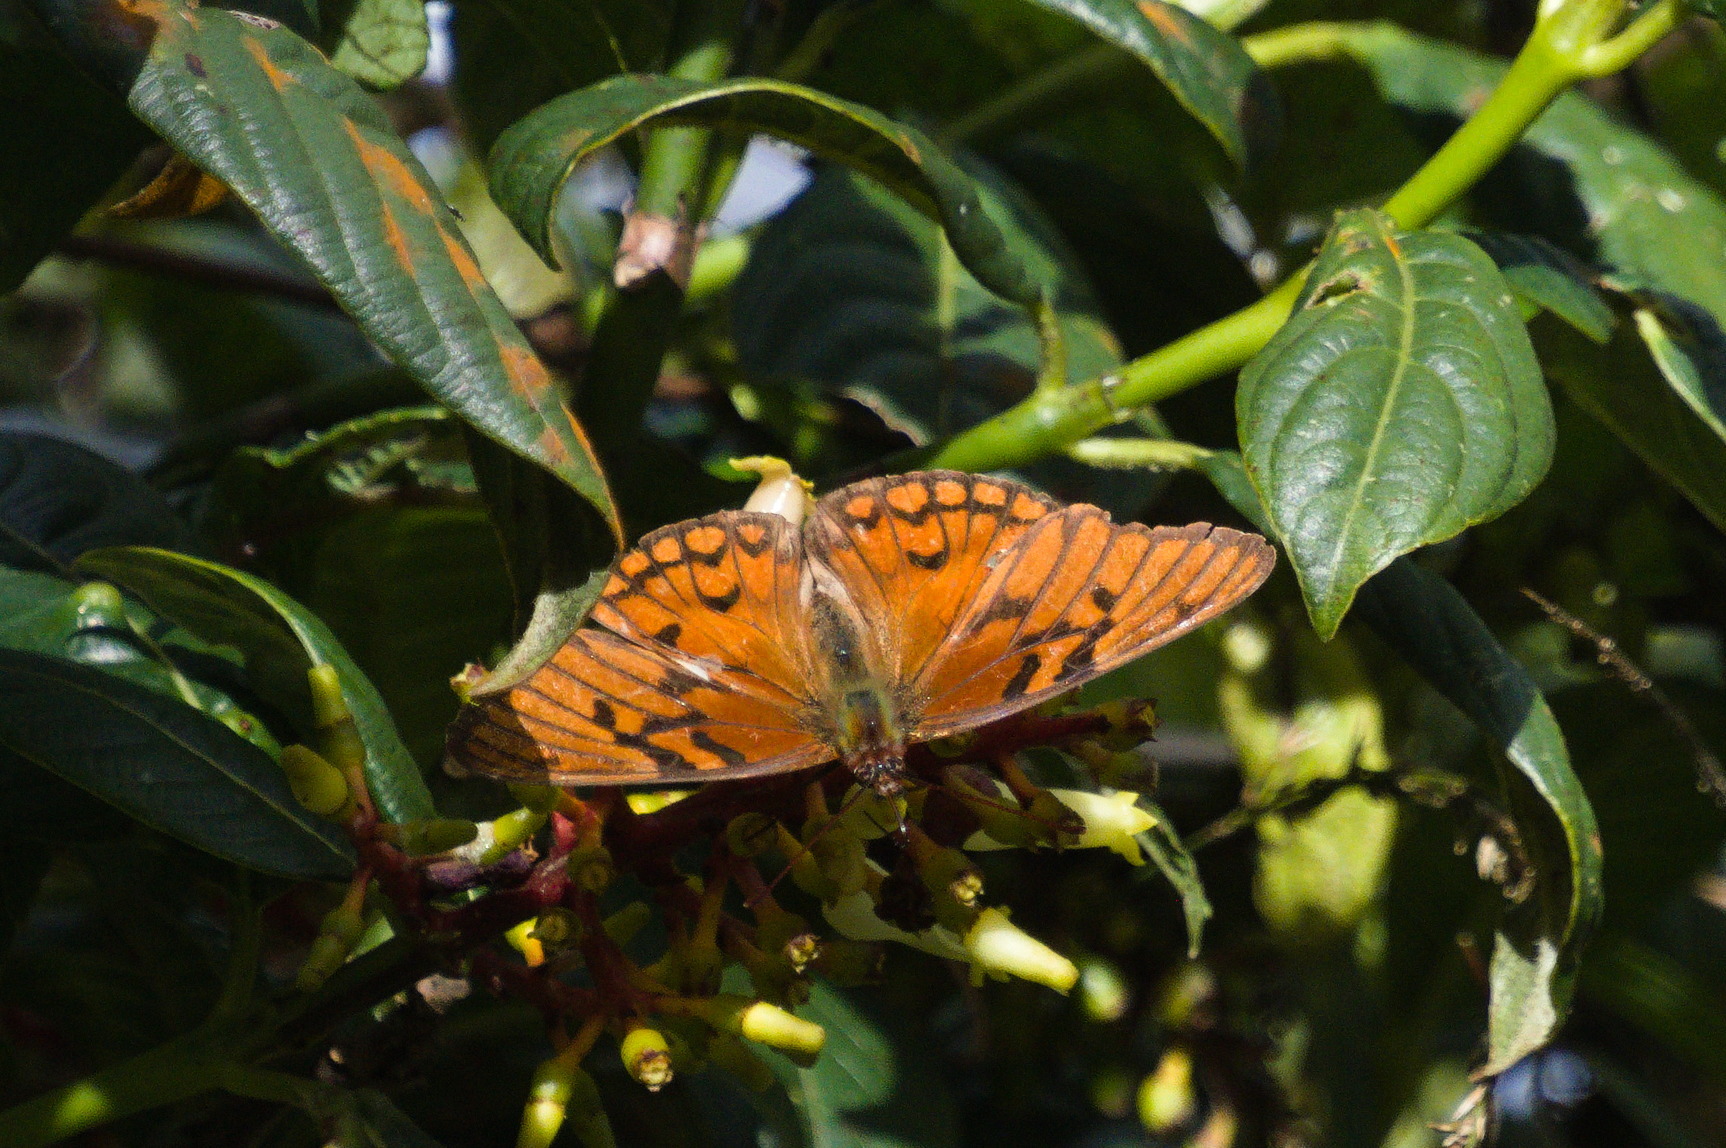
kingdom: Animalia
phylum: Arthropoda
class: Insecta
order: Lepidoptera
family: Nymphalidae
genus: Dione
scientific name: Dione glycera
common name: Andean silverspot
